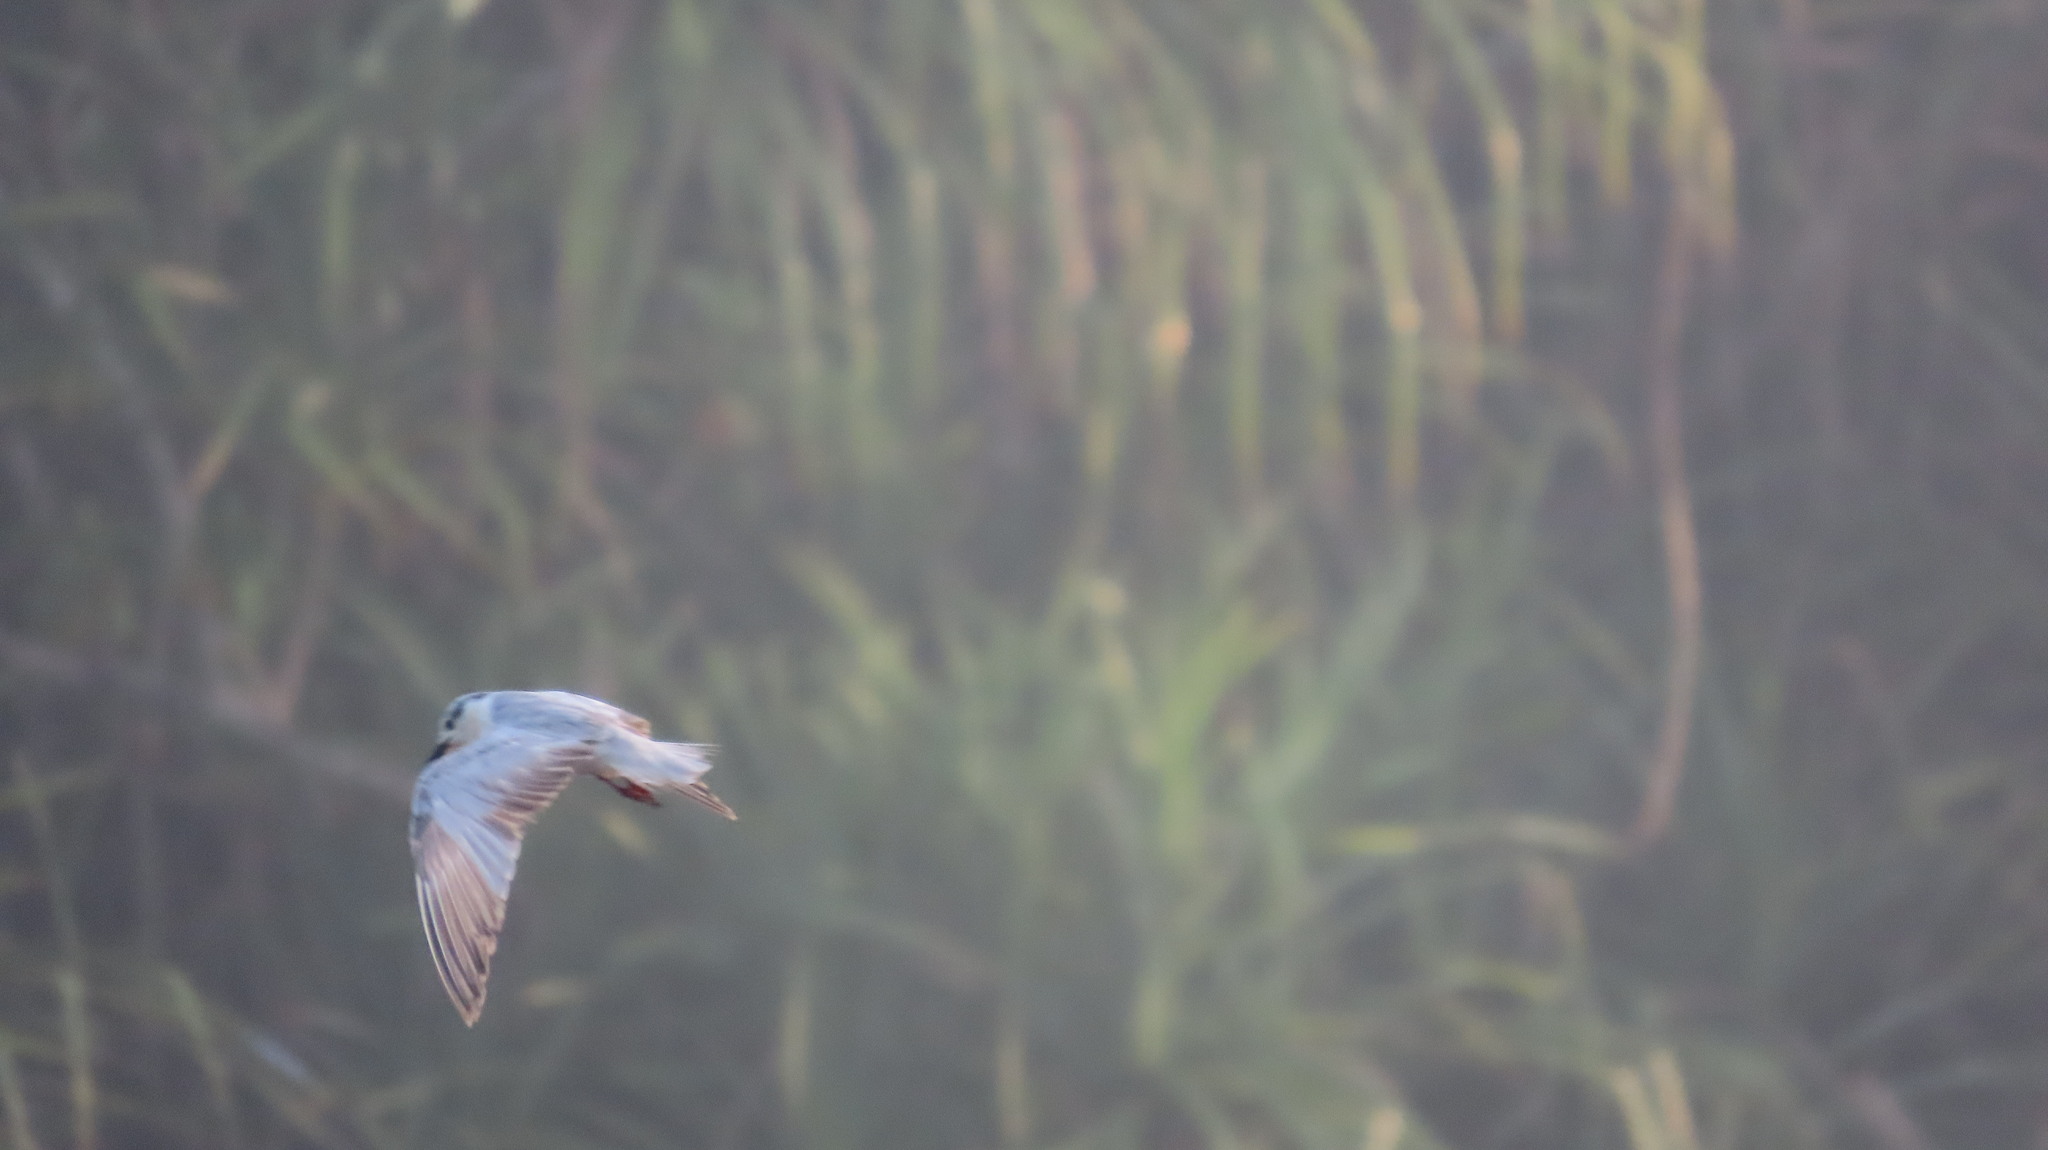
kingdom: Animalia
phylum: Chordata
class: Aves
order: Charadriiformes
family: Laridae
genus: Chlidonias
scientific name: Chlidonias hybrida
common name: Whiskered tern
